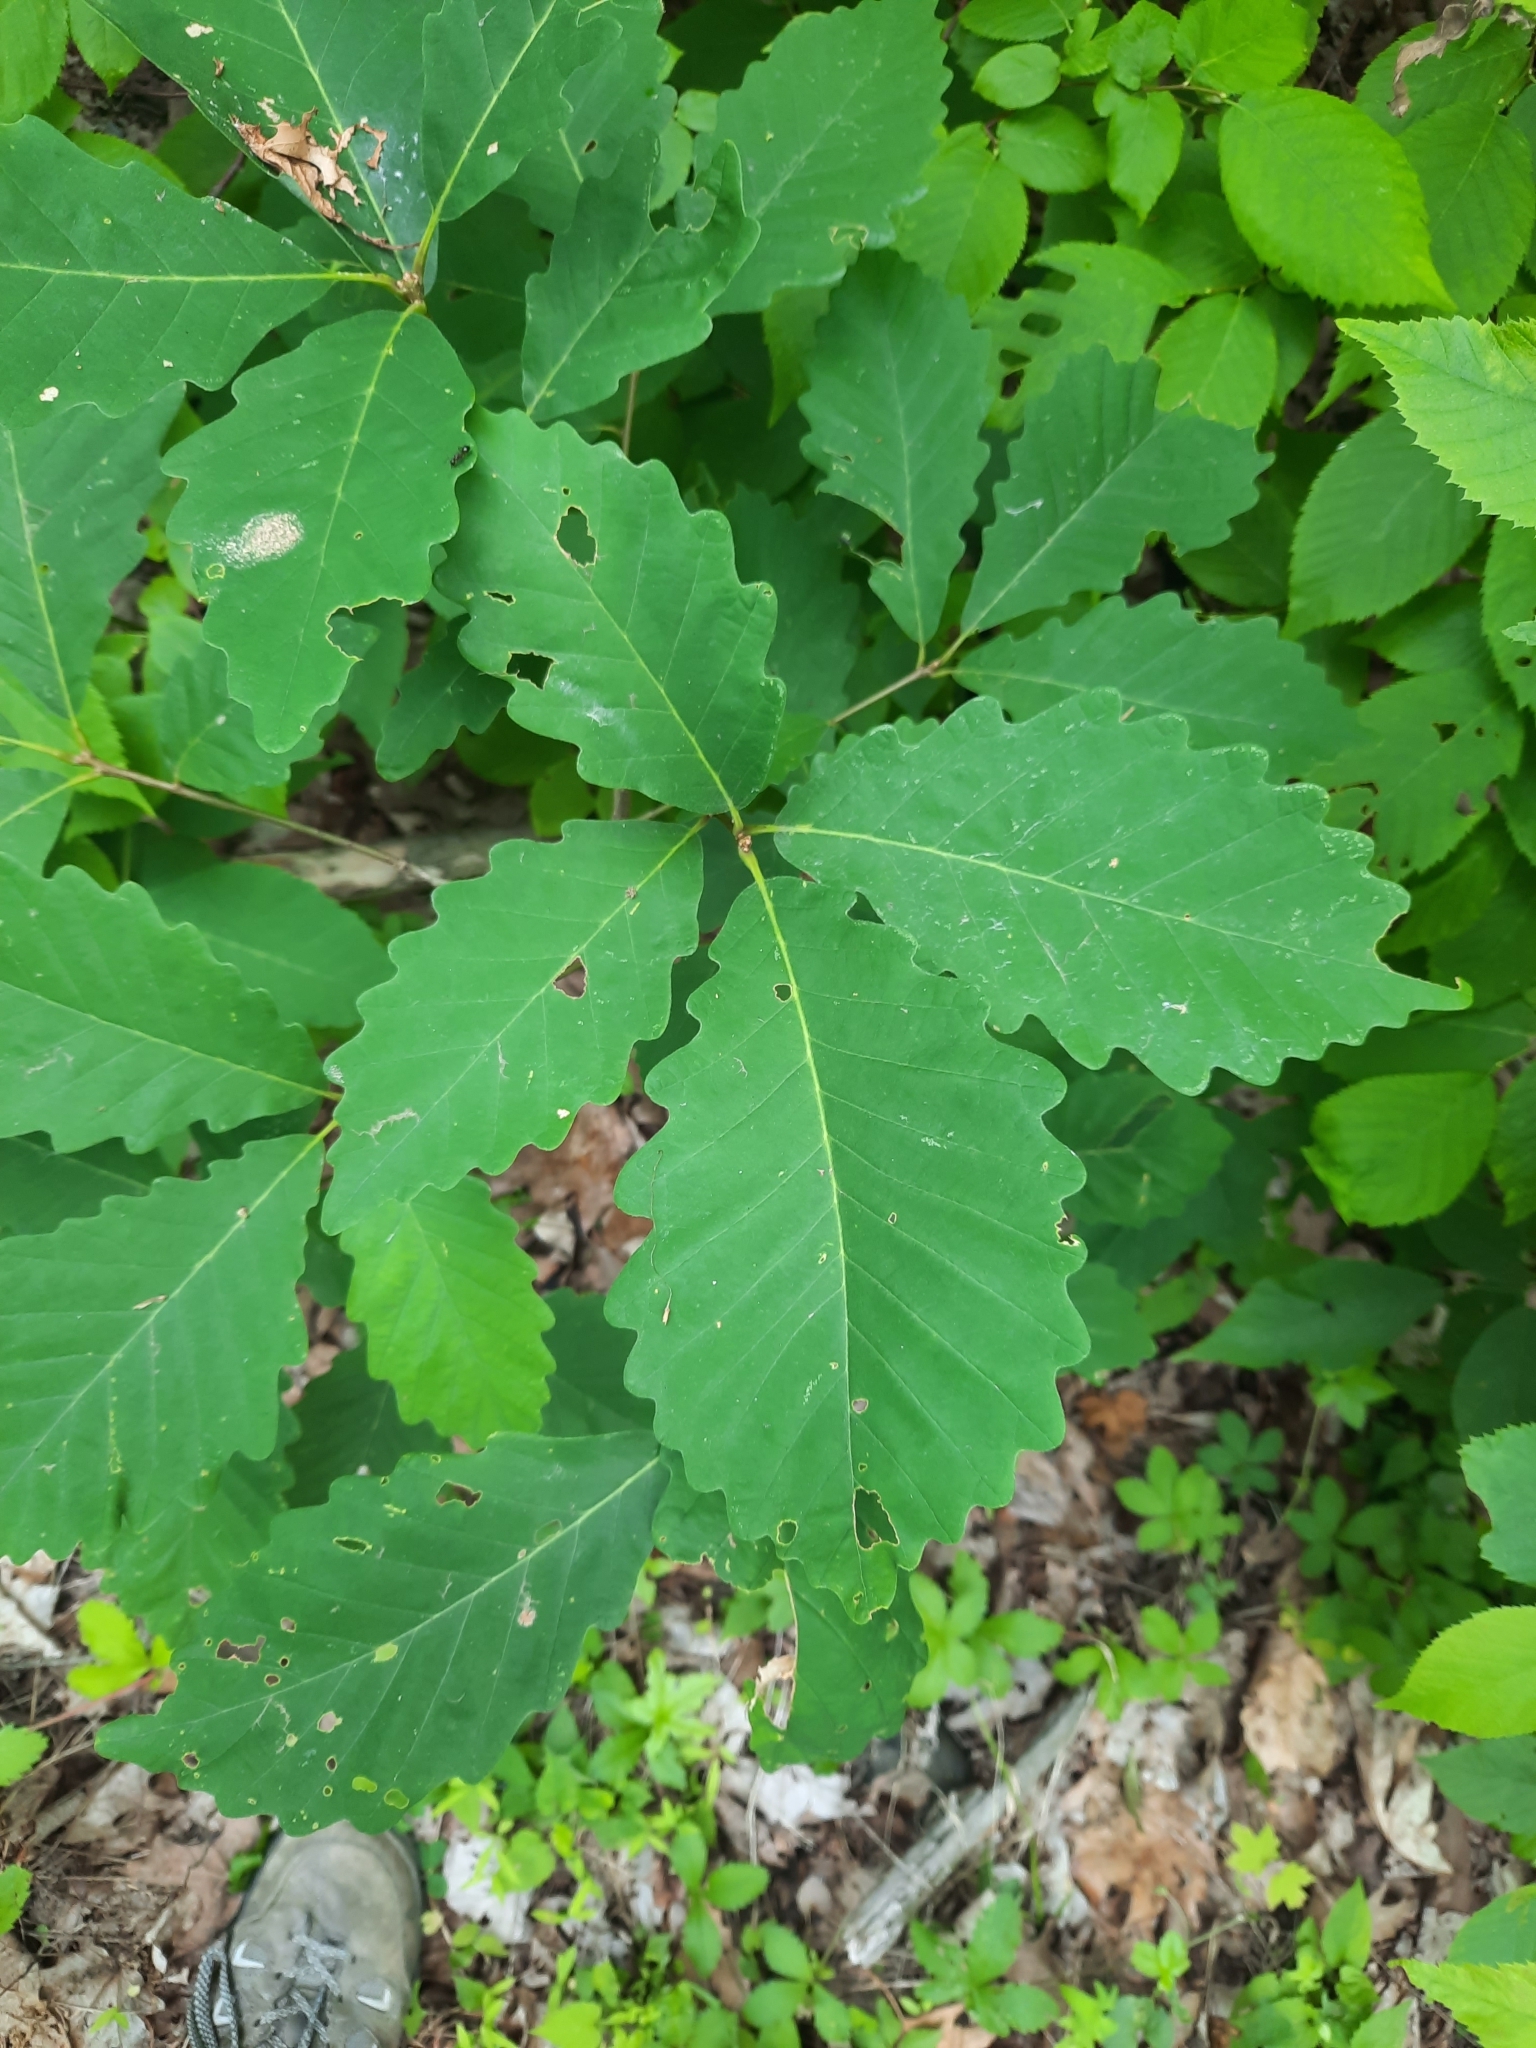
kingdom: Plantae
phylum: Tracheophyta
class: Magnoliopsida
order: Fagales
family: Fagaceae
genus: Quercus
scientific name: Quercus montana
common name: Chestnut oak
